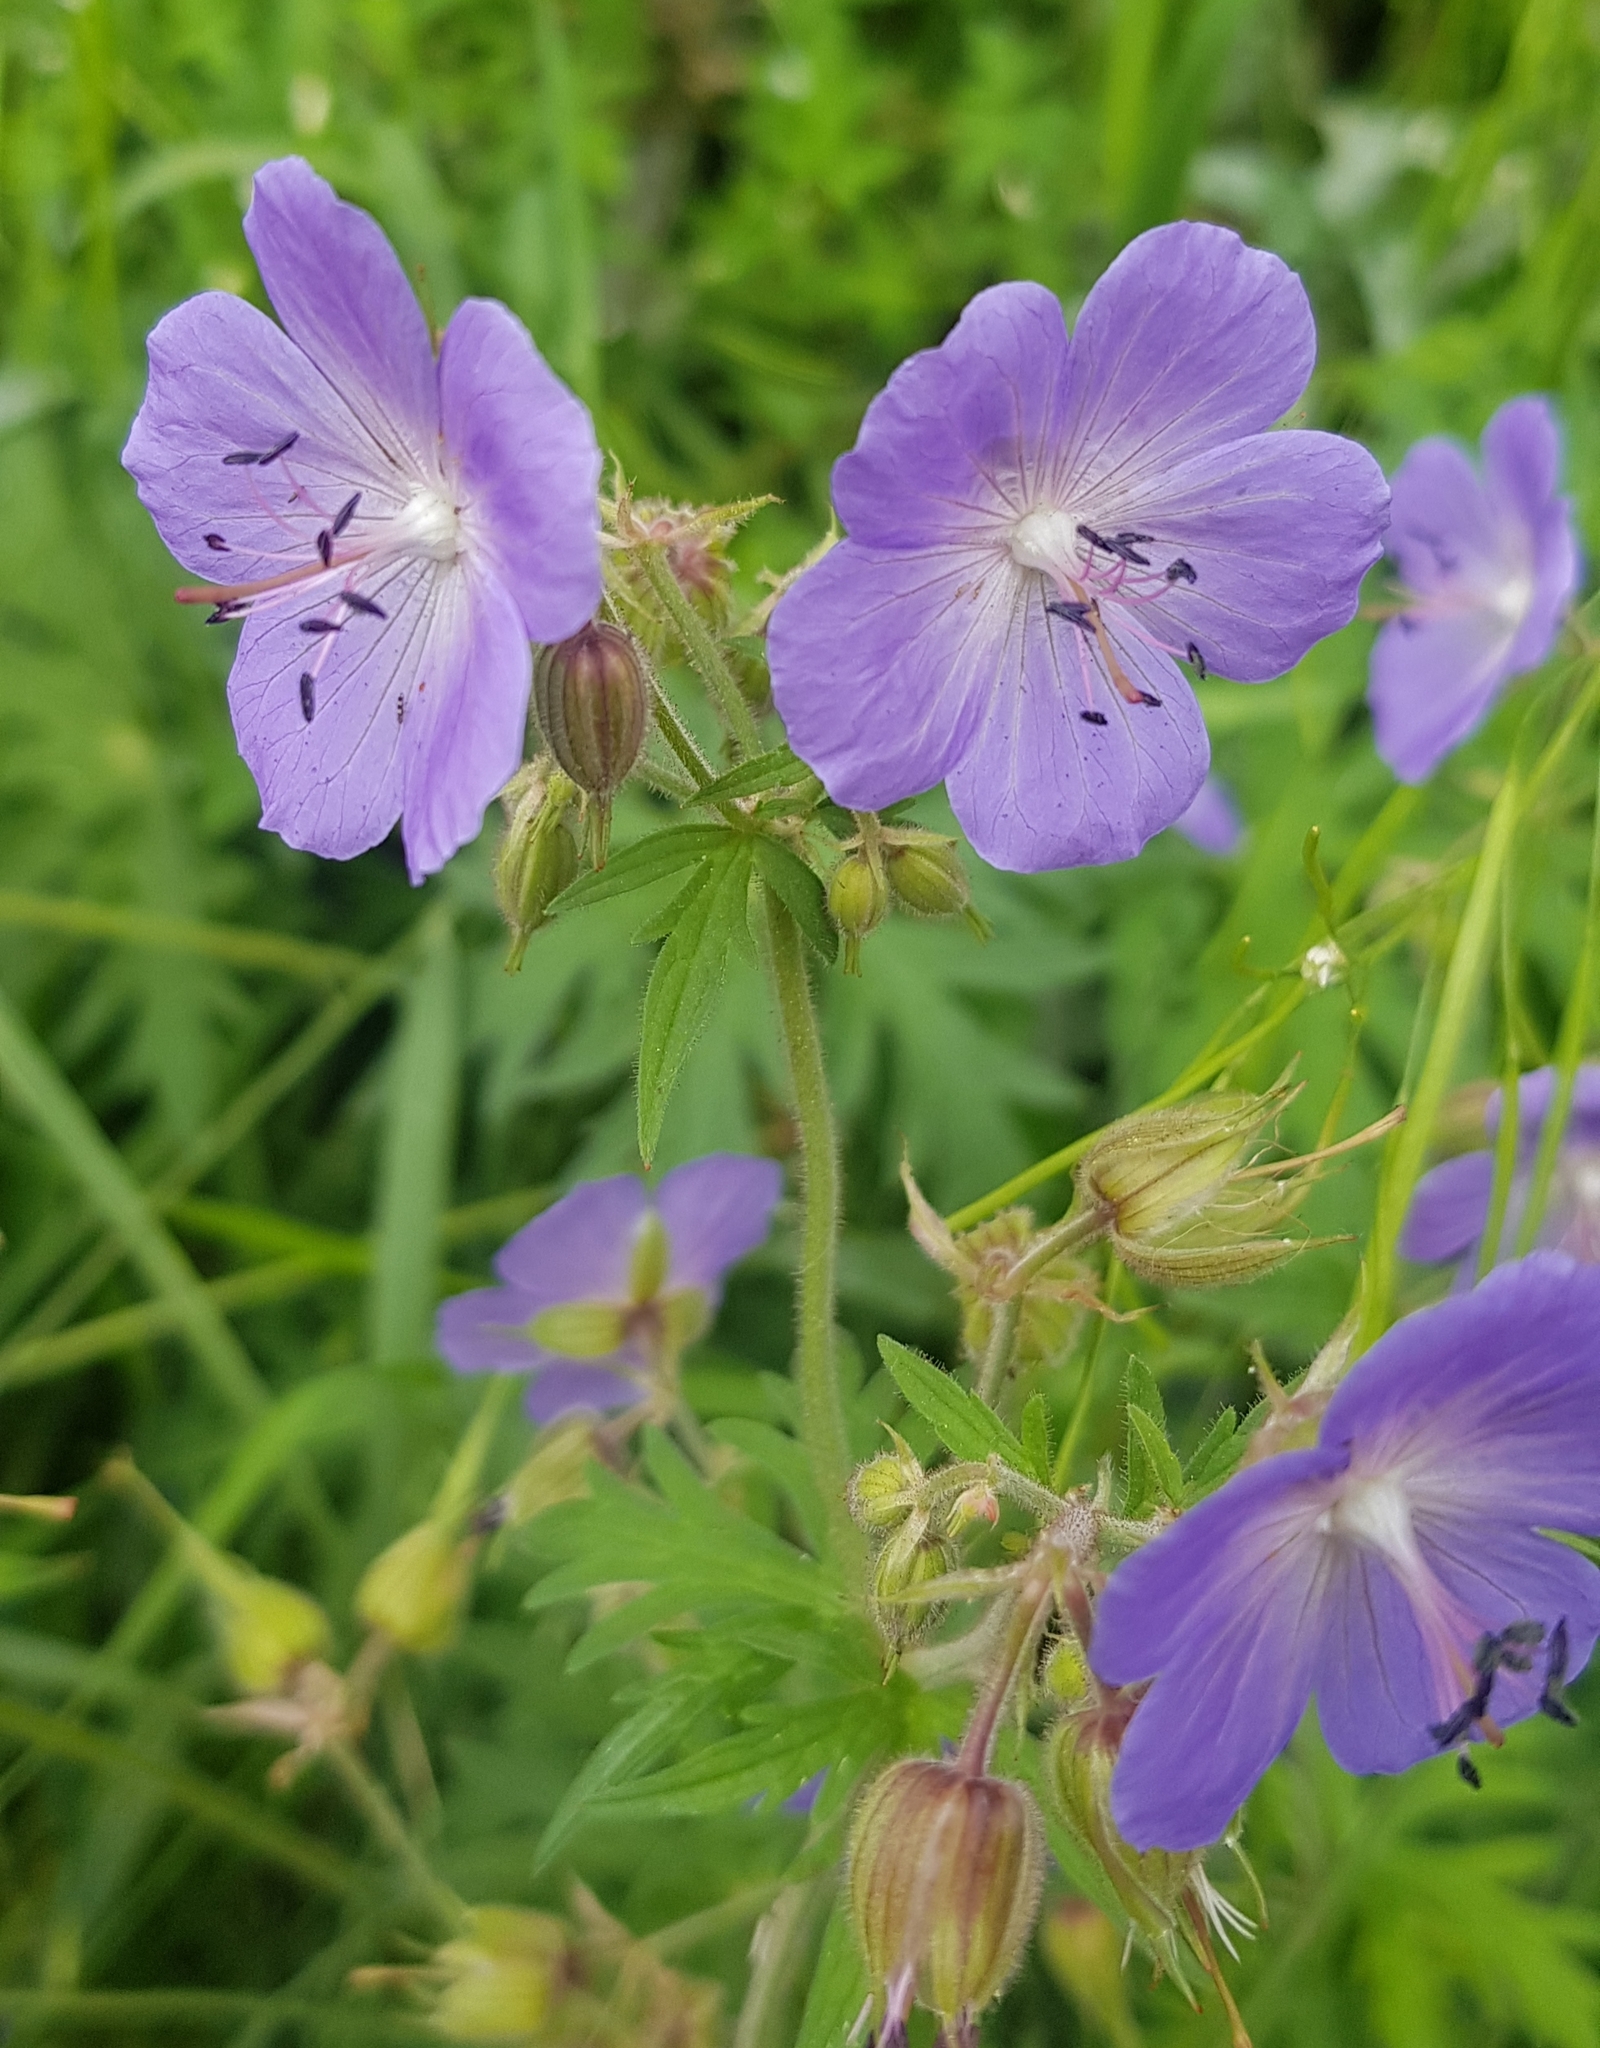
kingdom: Plantae
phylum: Tracheophyta
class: Magnoliopsida
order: Geraniales
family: Geraniaceae
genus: Geranium
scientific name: Geranium pratense
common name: Meadow crane's-bill
